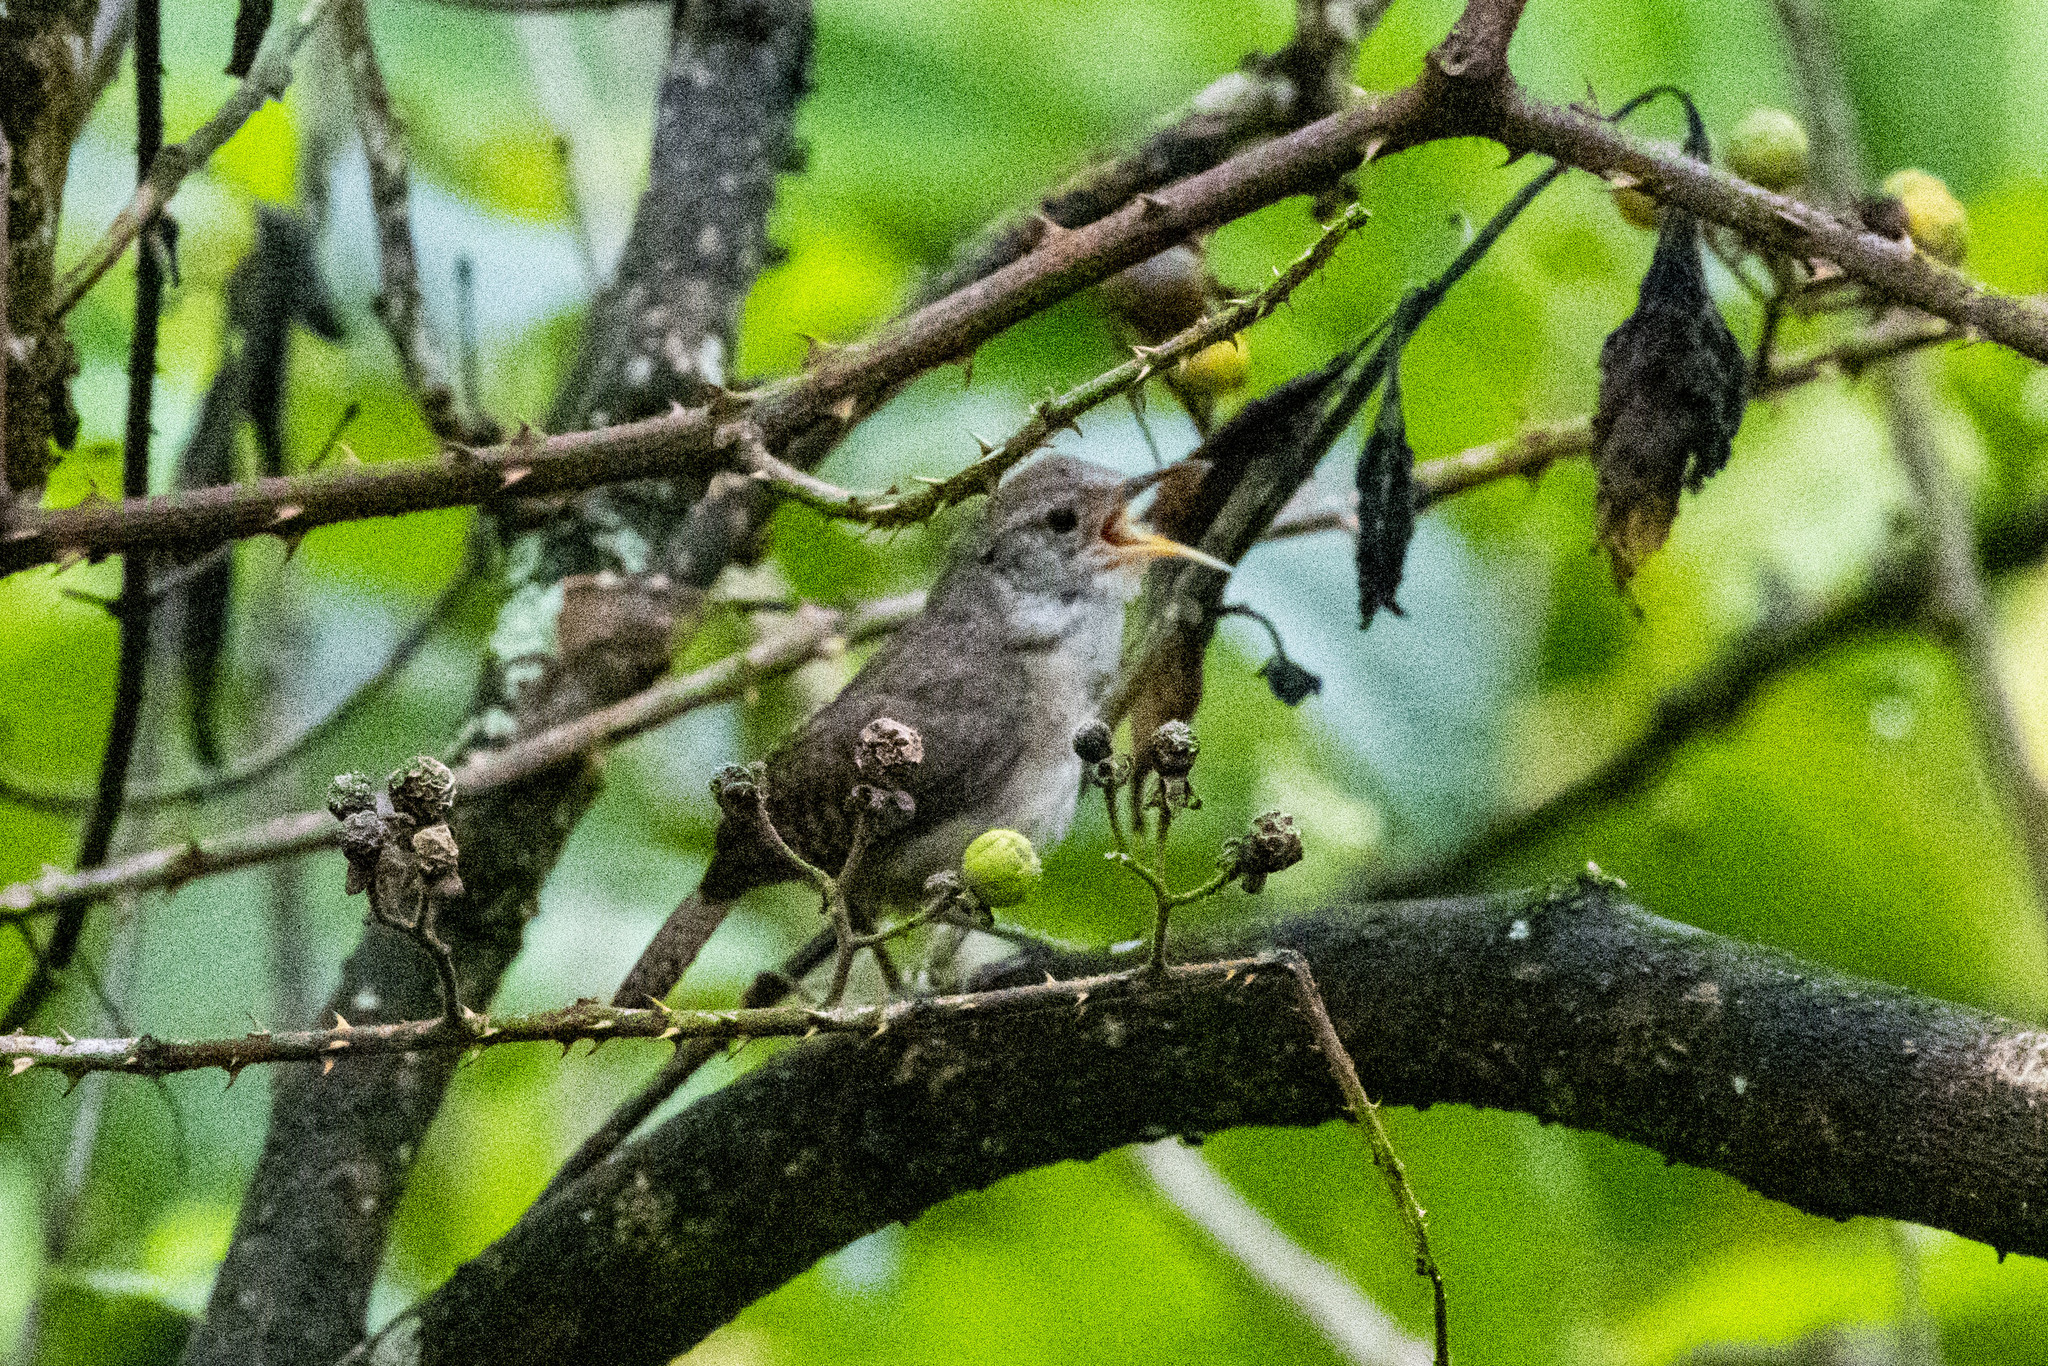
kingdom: Animalia
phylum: Chordata
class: Aves
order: Passeriformes
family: Troglodytidae
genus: Troglodytes
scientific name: Troglodytes aedon
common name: House wren
